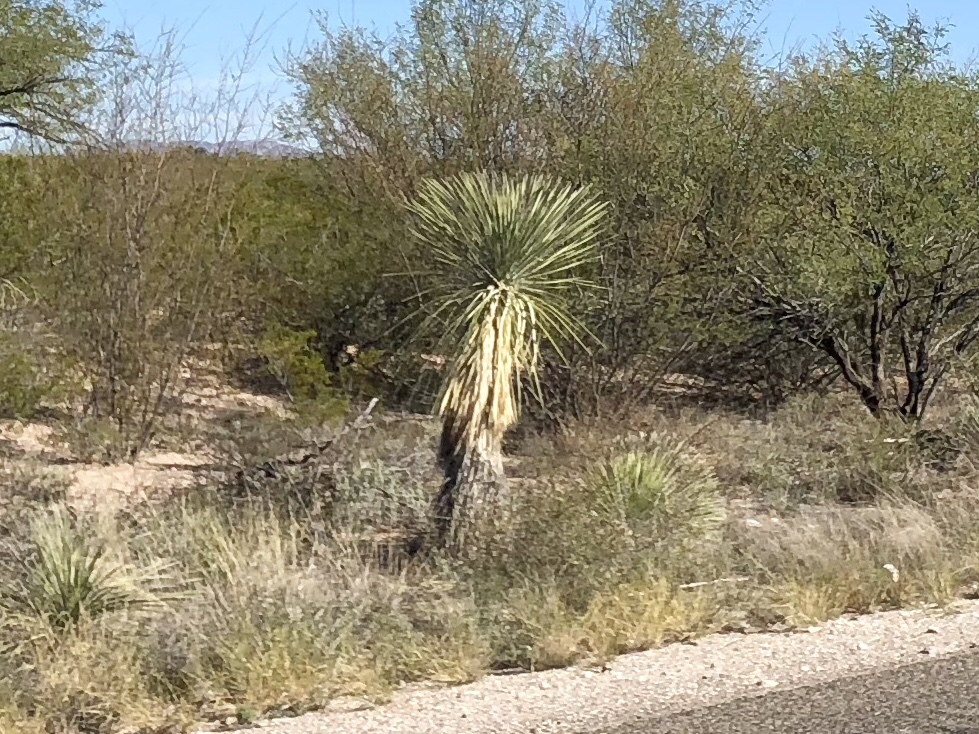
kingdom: Plantae
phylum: Tracheophyta
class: Liliopsida
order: Asparagales
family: Asparagaceae
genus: Yucca
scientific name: Yucca elata
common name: Palmella
